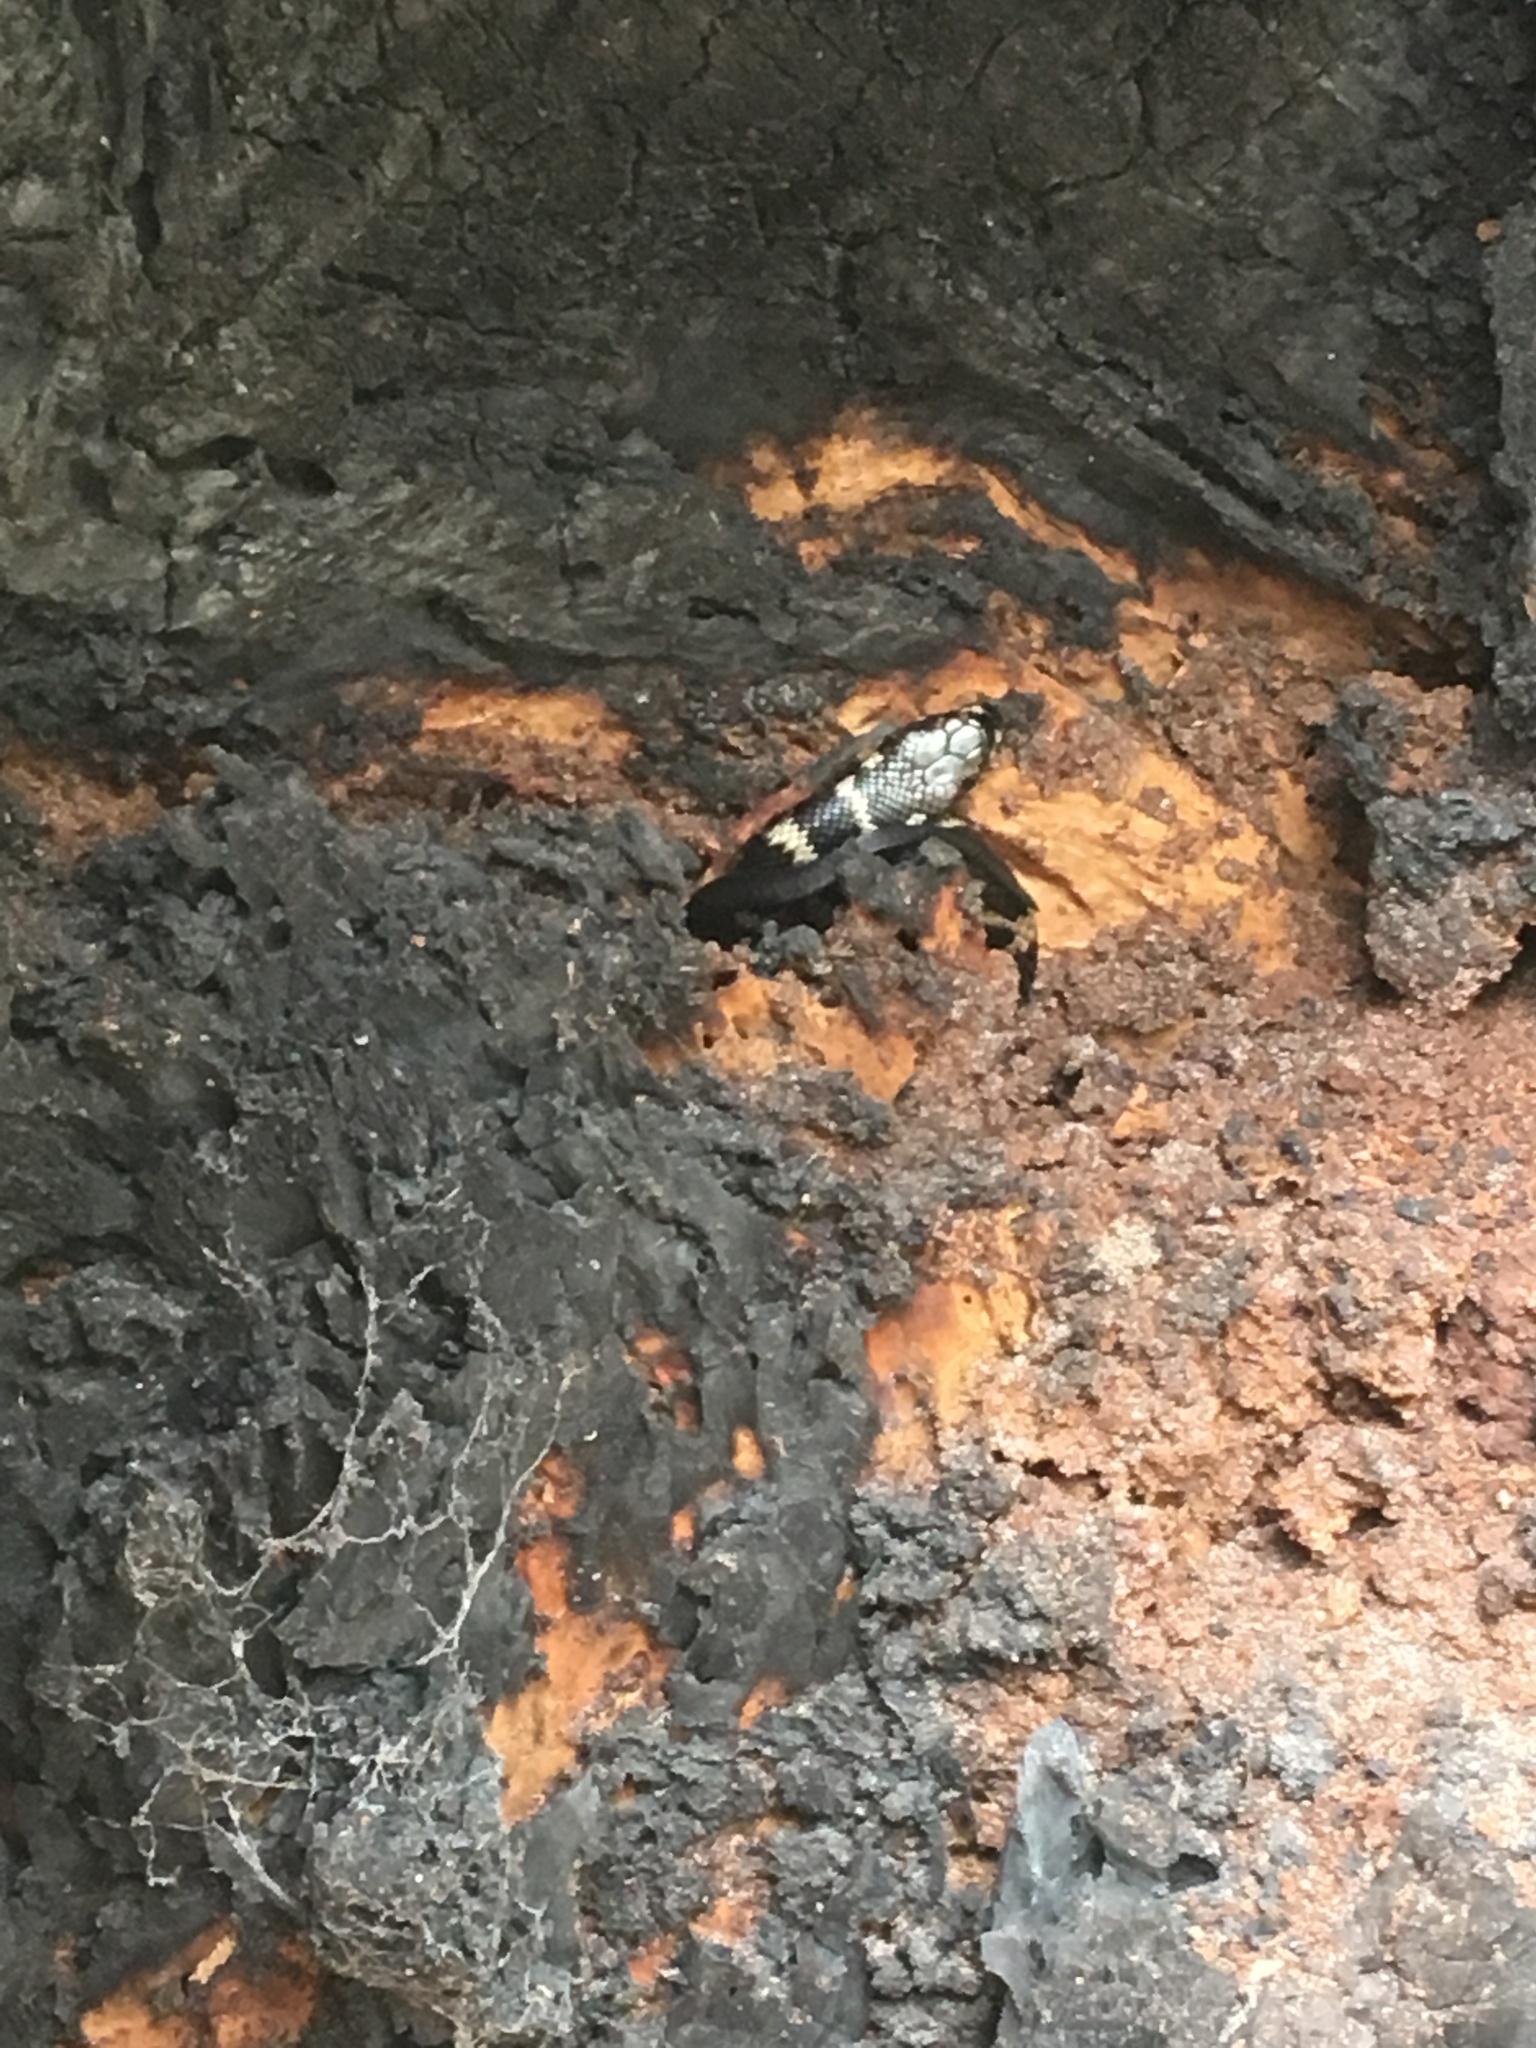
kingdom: Animalia
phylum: Chordata
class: Squamata
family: Elapidae
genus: Hoplocephalus
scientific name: Hoplocephalus stephensii
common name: Stephen's banded snake
